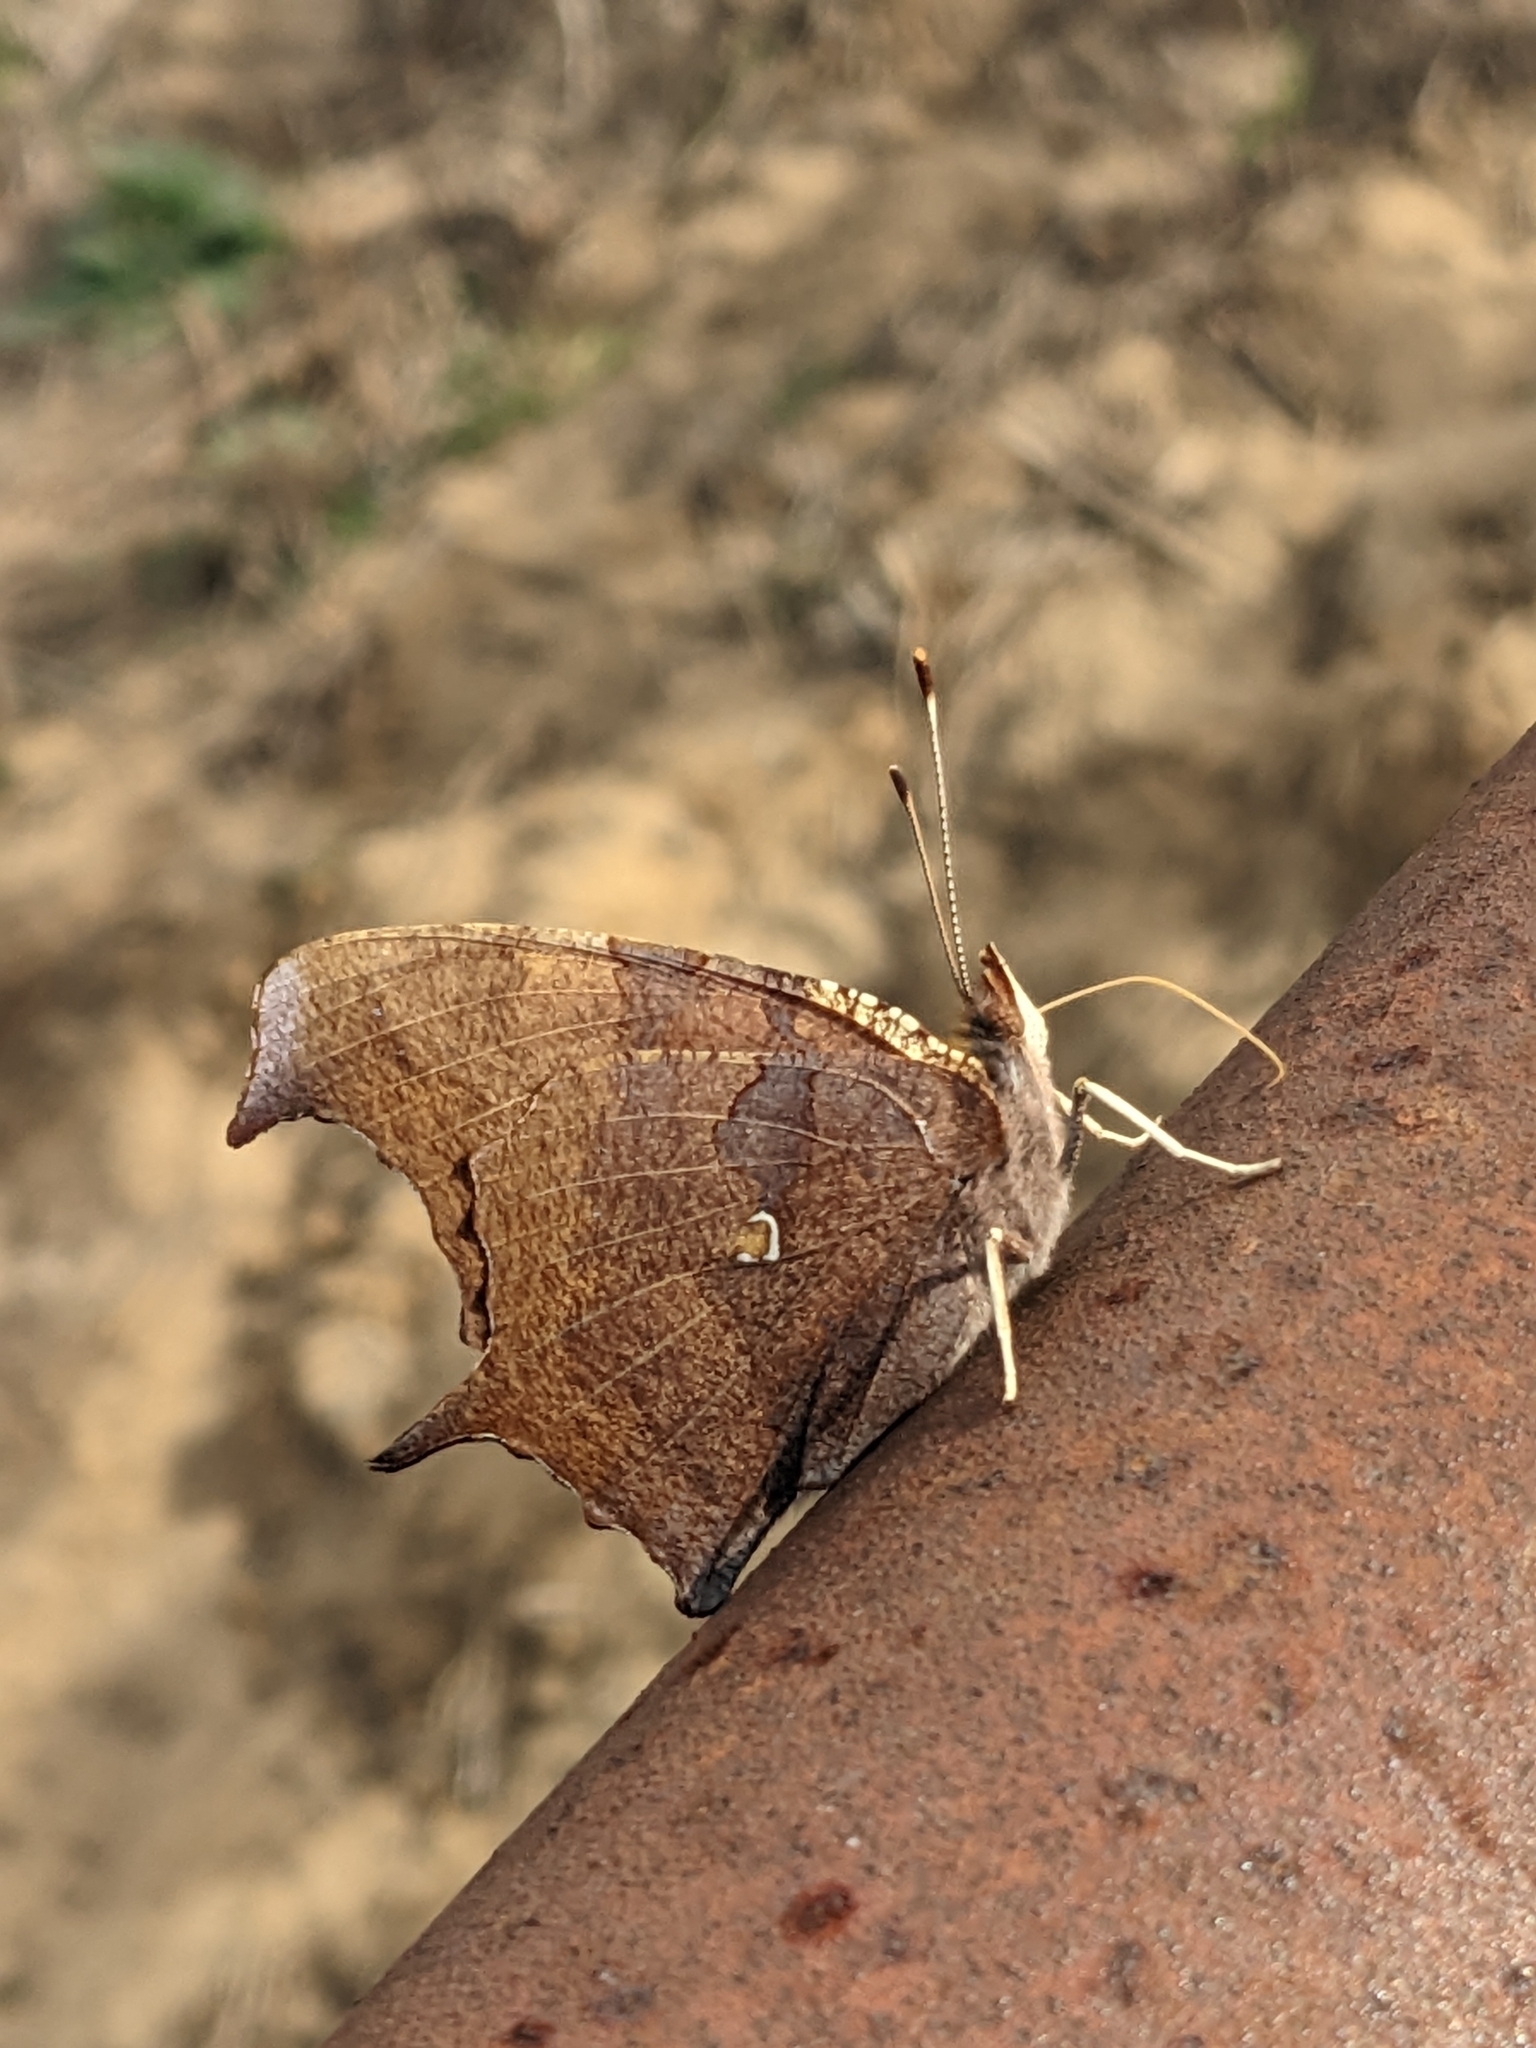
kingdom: Animalia
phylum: Arthropoda
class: Insecta
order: Lepidoptera
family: Nymphalidae
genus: Polygonia
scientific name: Polygonia interrogationis
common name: Question mark
